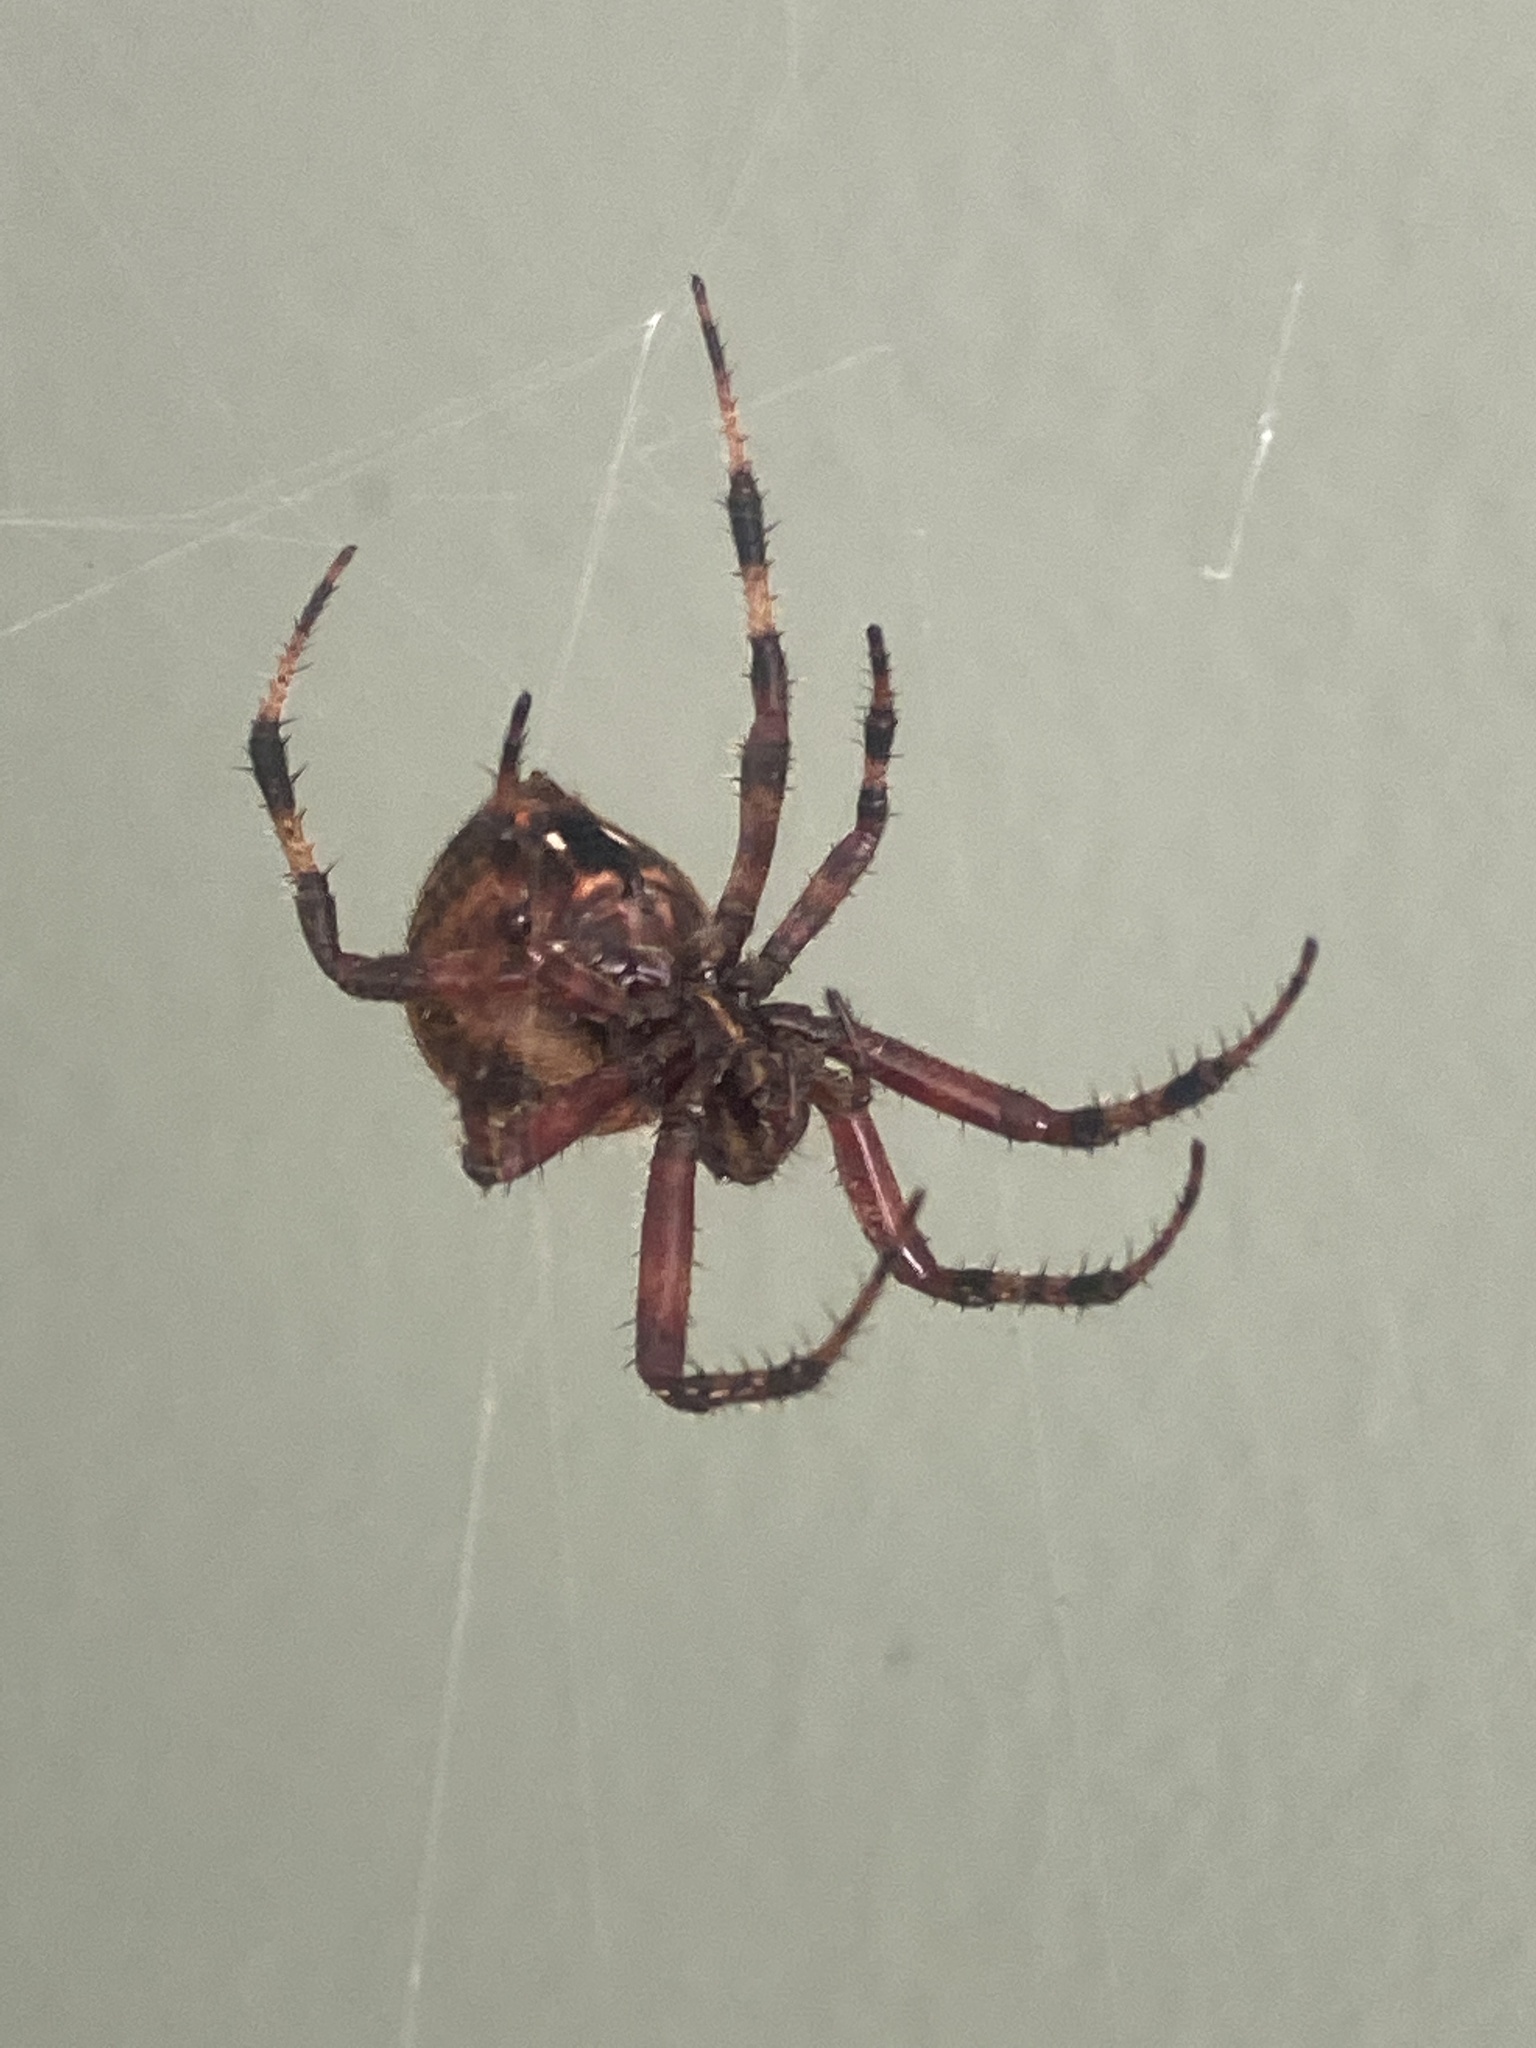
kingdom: Animalia
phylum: Arthropoda
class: Arachnida
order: Araneae
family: Araneidae
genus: Neoscona
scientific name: Neoscona crucifera
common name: Spotted orbweaver
